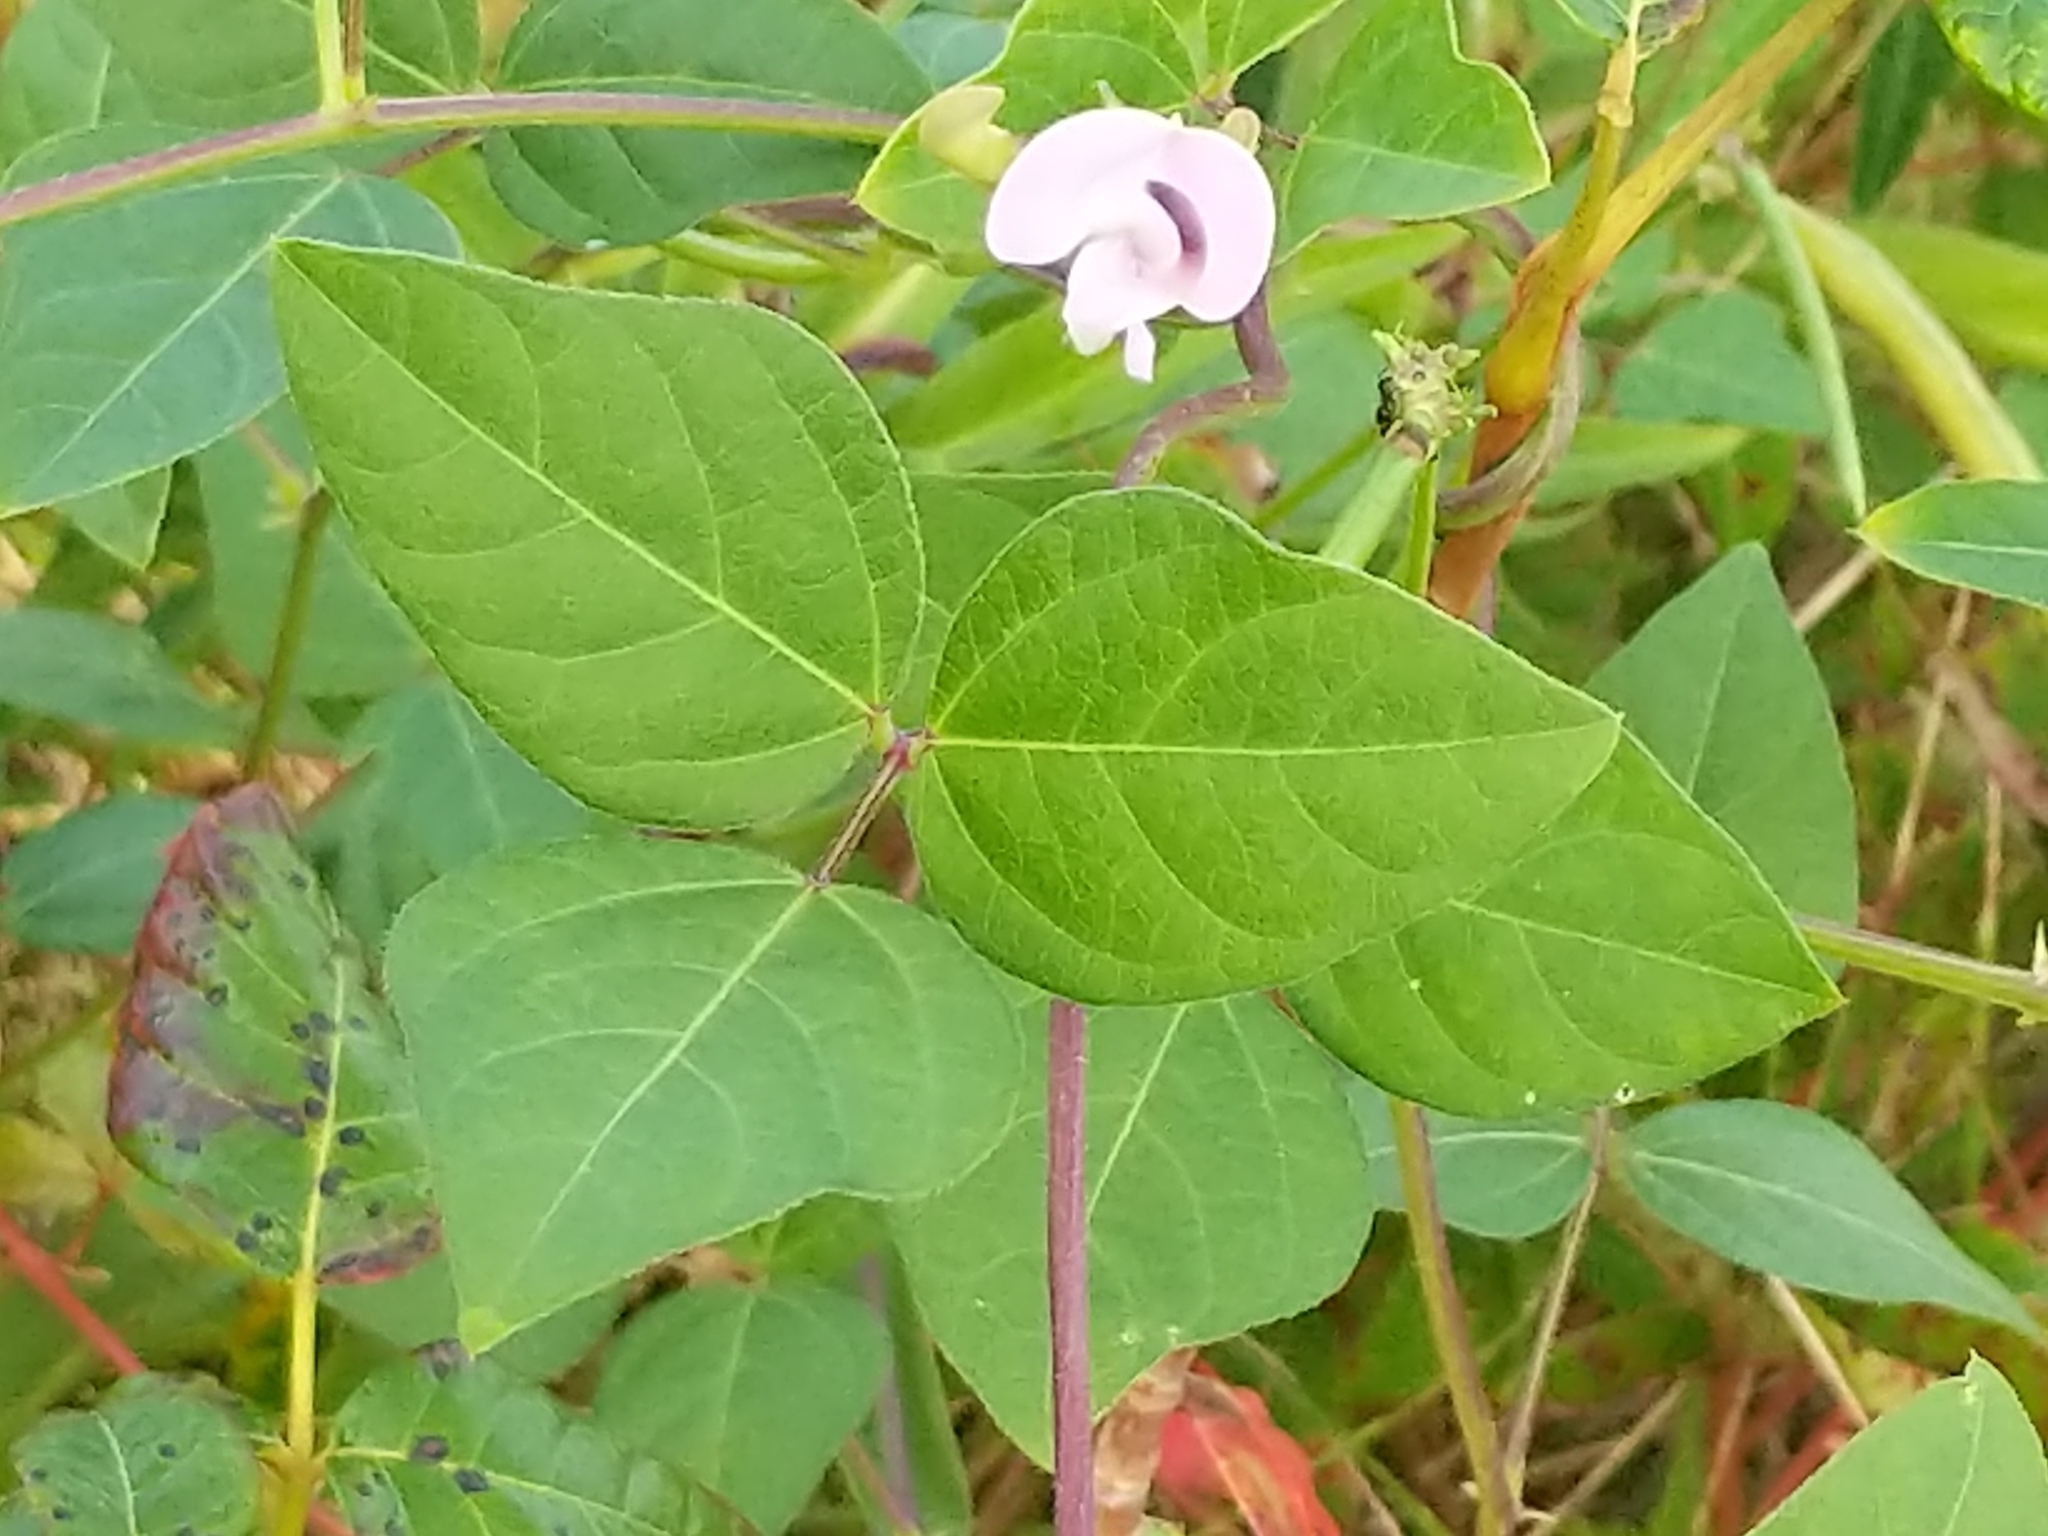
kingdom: Plantae
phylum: Tracheophyta
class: Magnoliopsida
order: Fabales
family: Fabaceae
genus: Strophostyles
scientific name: Strophostyles helvola
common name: Trailing wild bean
